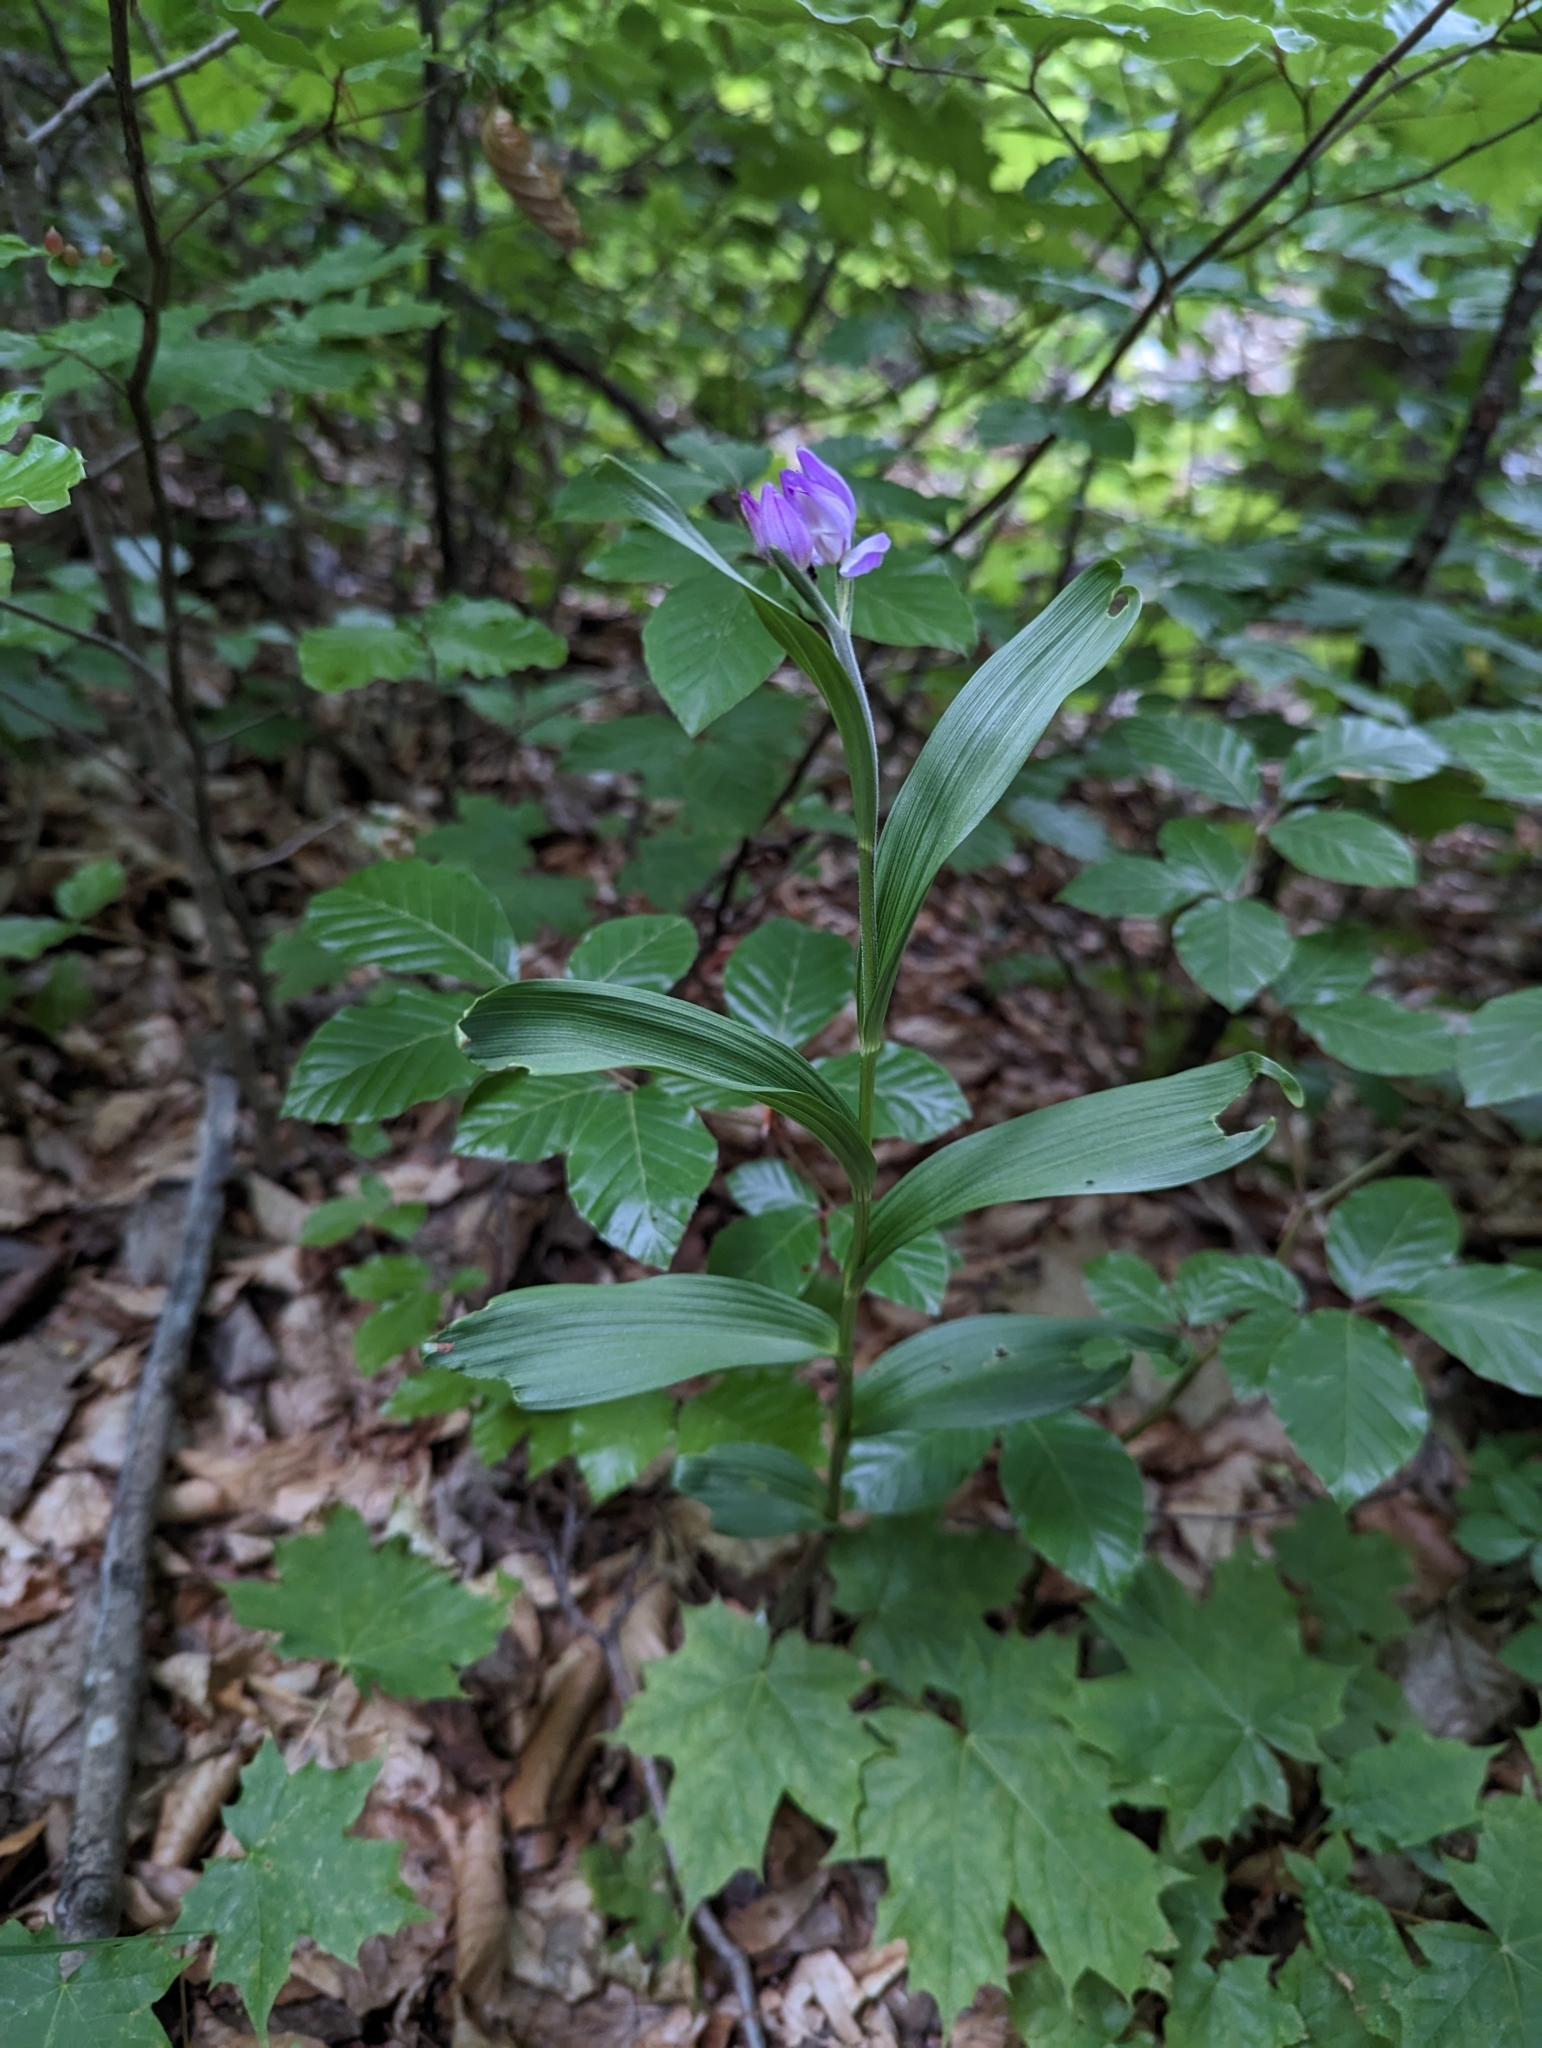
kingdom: Plantae
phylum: Tracheophyta
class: Liliopsida
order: Asparagales
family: Orchidaceae
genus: Cephalanthera
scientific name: Cephalanthera rubra
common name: Red helleborine
